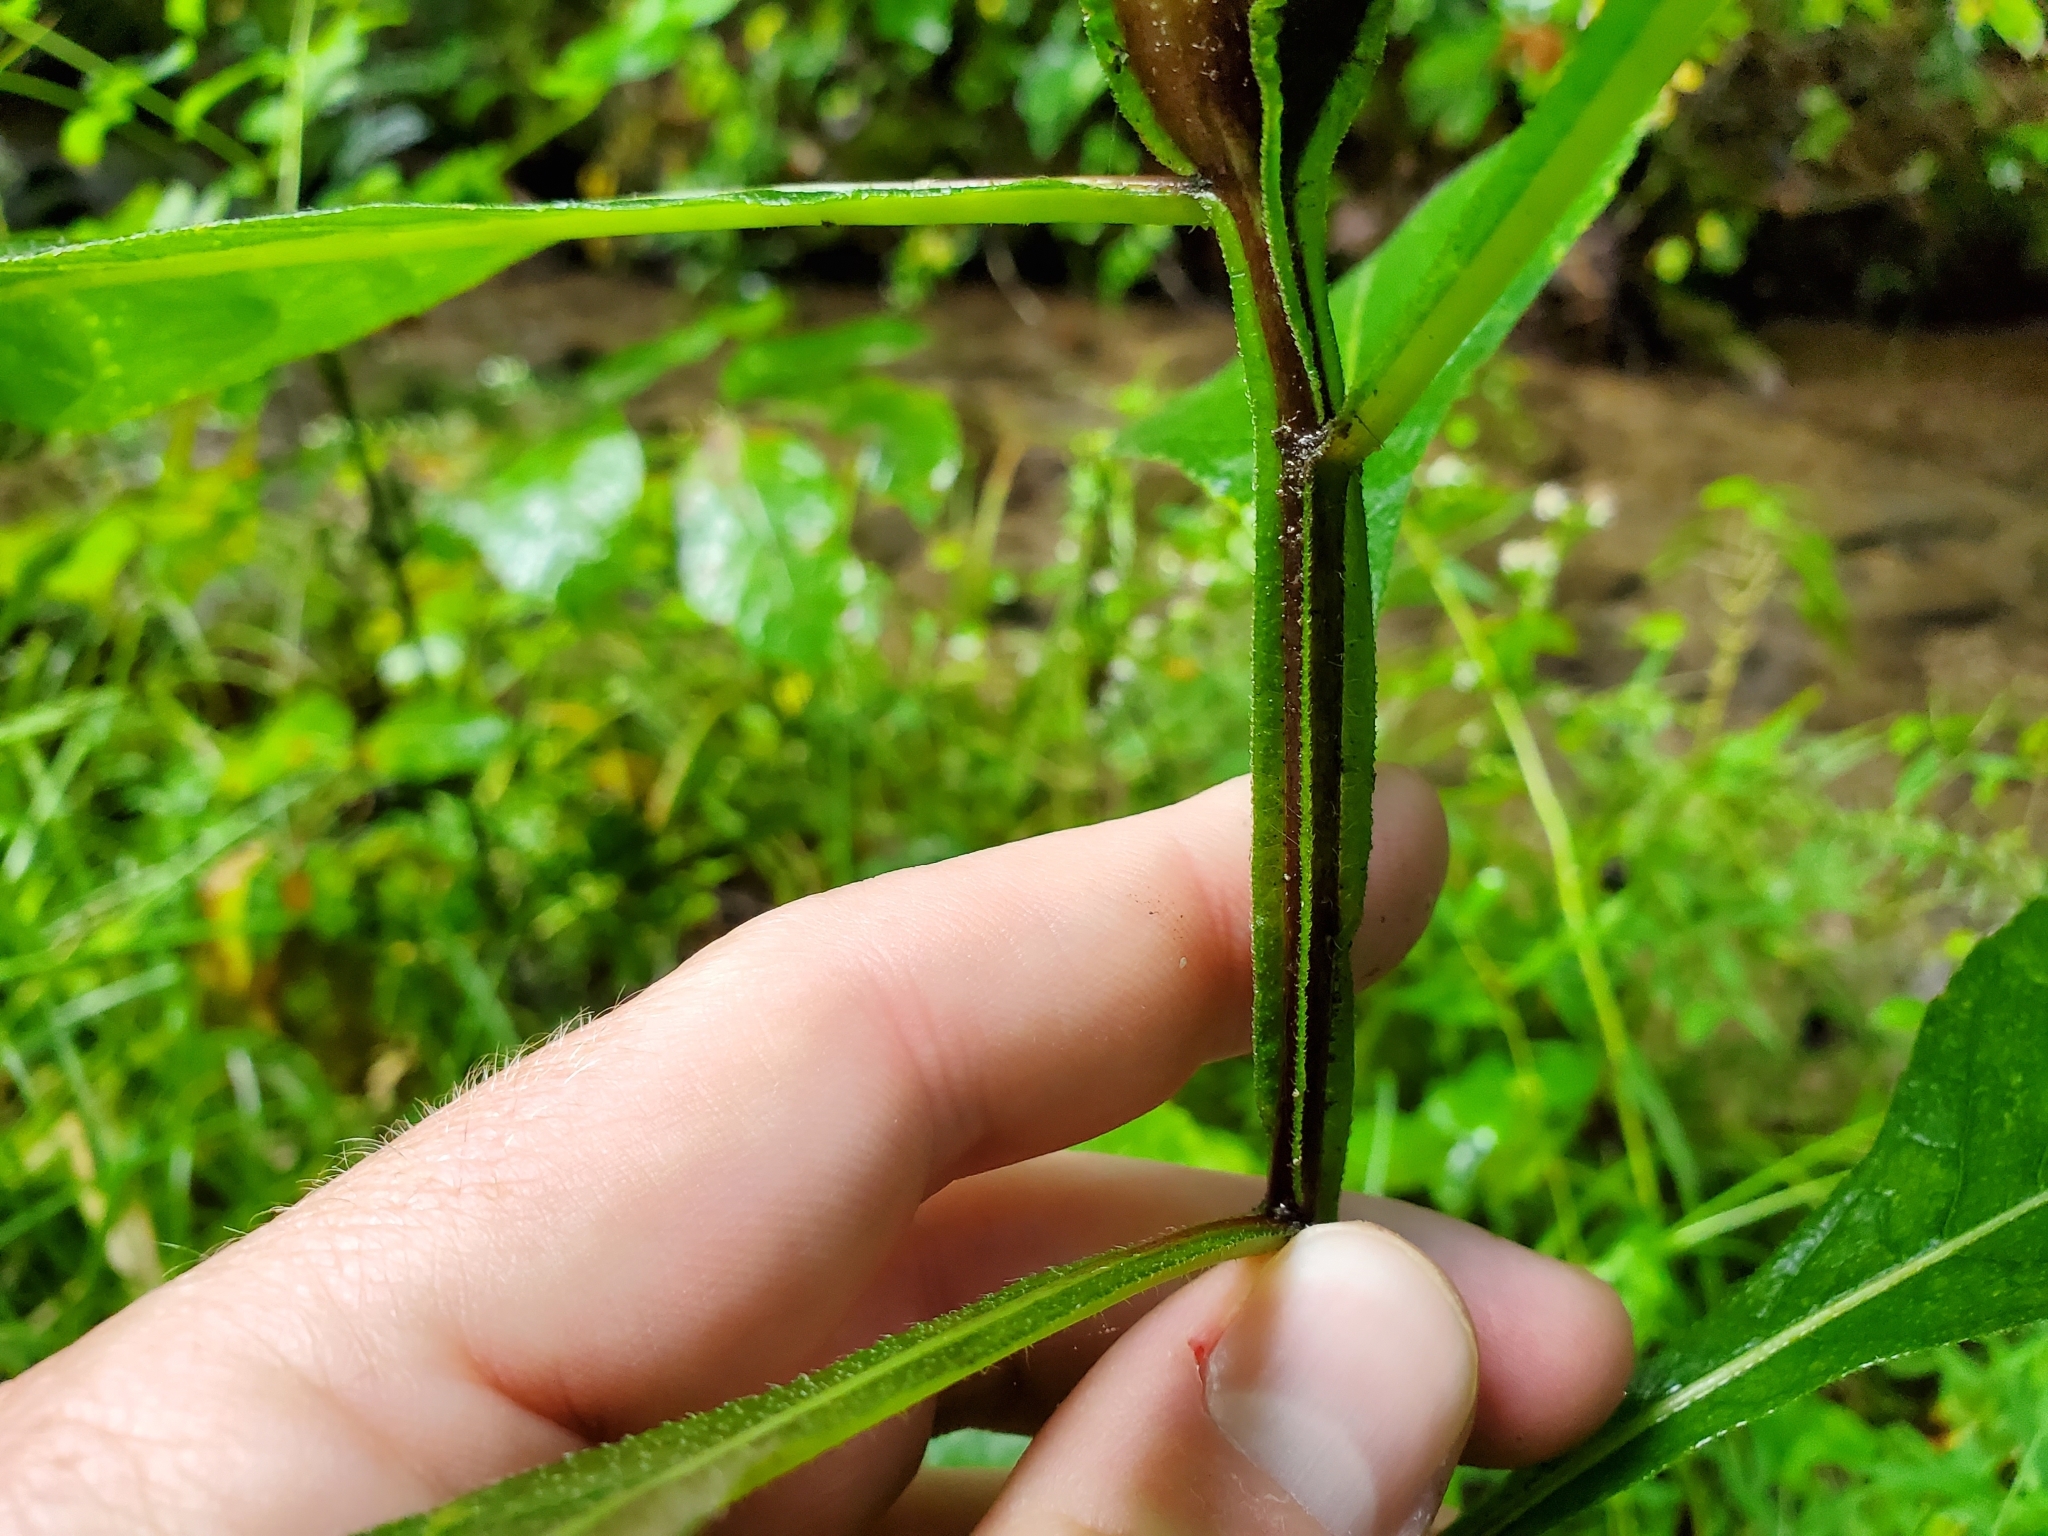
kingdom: Plantae
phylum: Tracheophyta
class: Magnoliopsida
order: Asterales
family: Asteraceae
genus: Verbesina
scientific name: Verbesina alternifolia
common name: Wingstem
